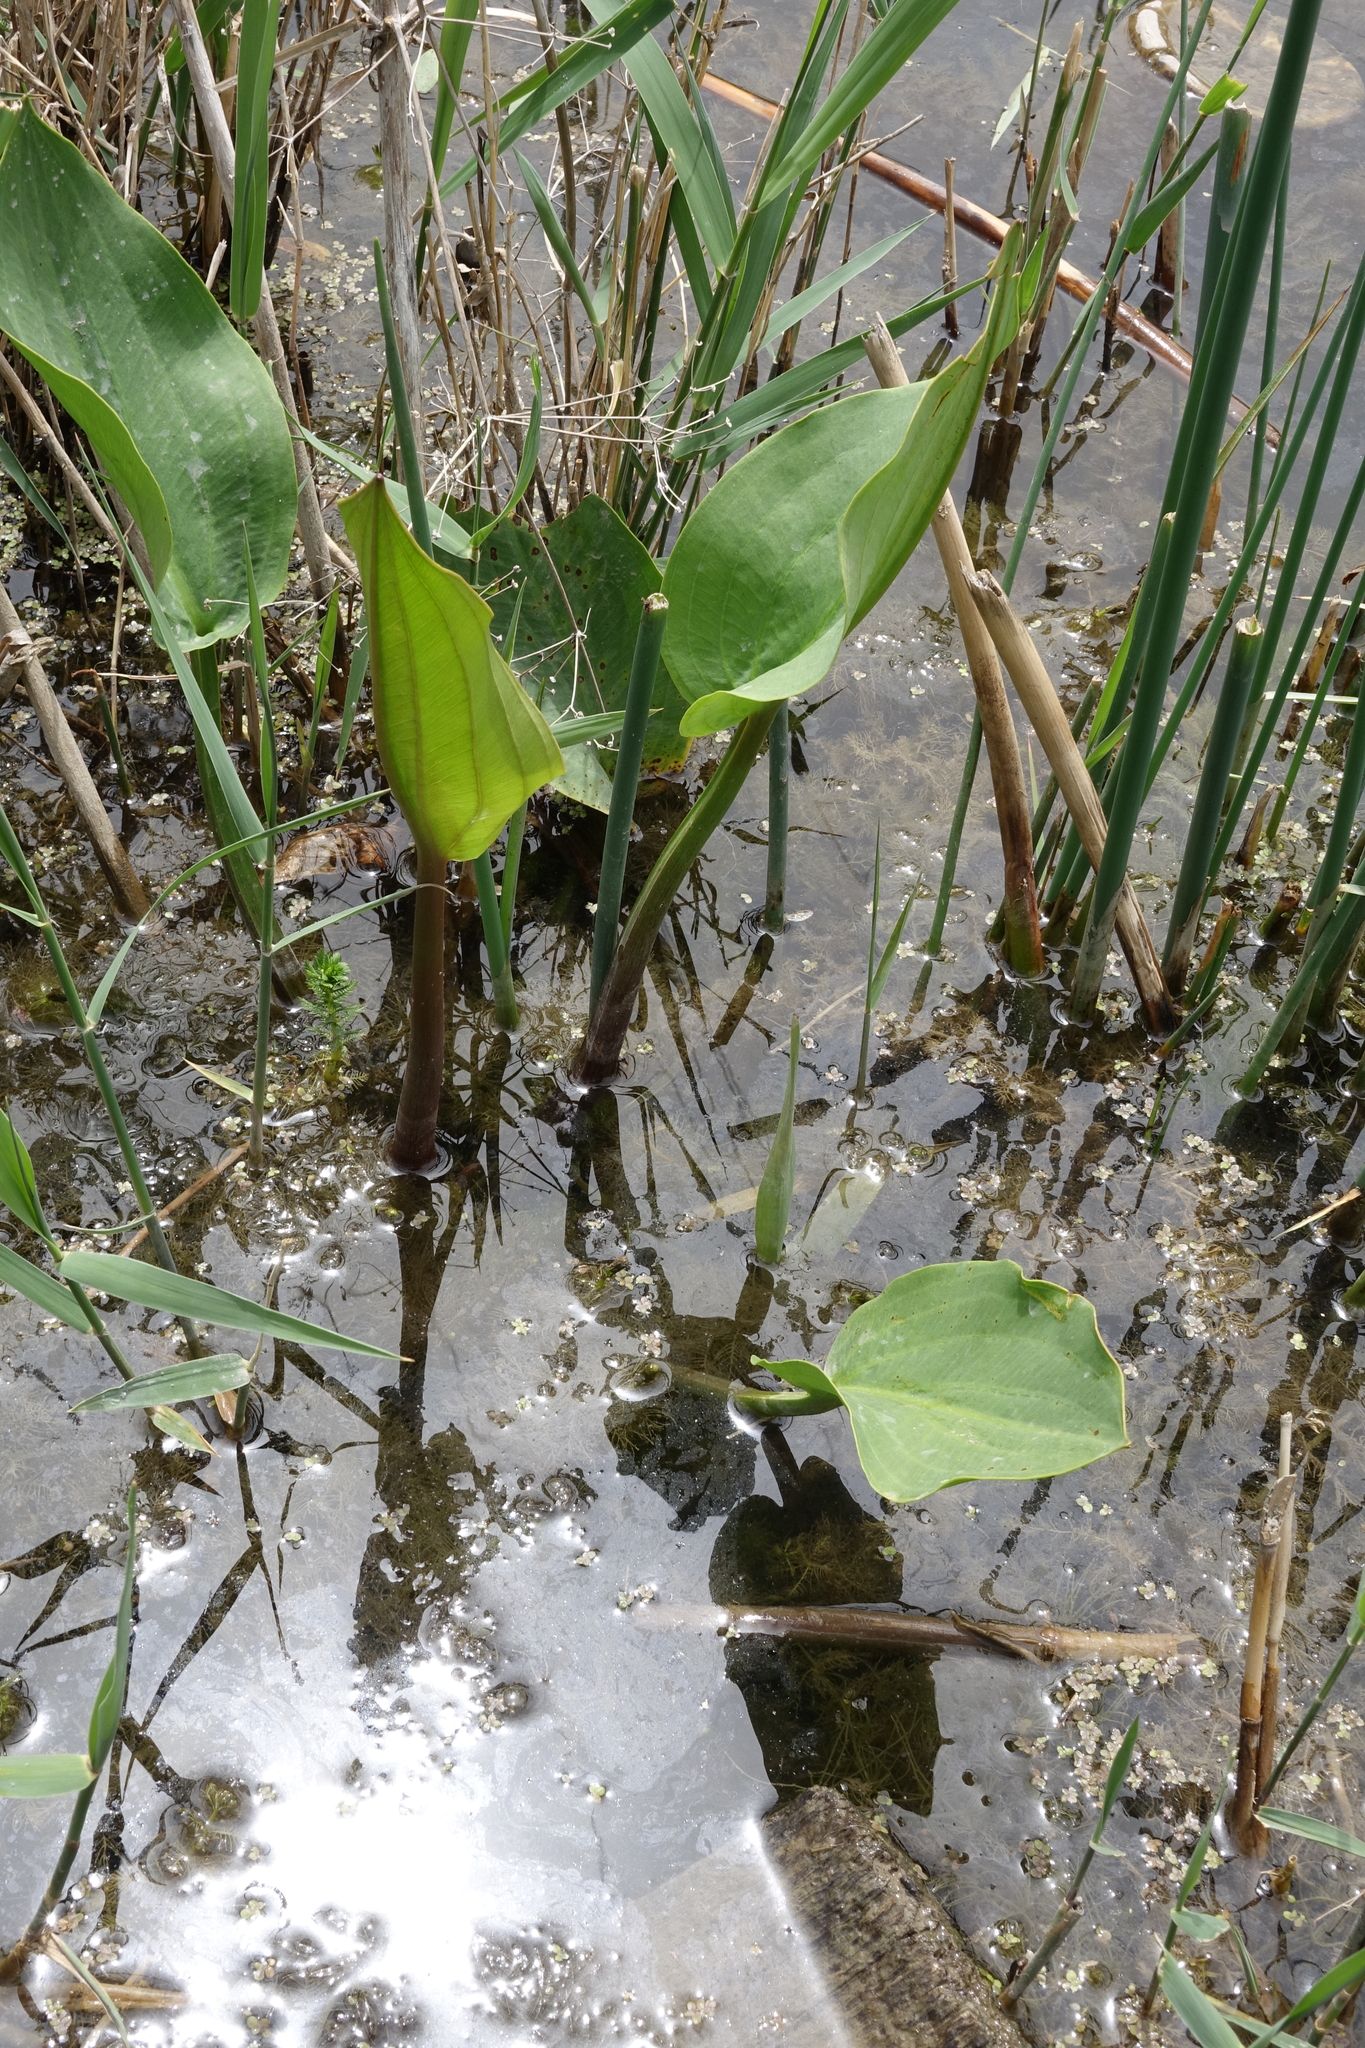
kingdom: Plantae
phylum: Tracheophyta
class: Liliopsida
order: Alismatales
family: Alismataceae
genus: Alisma
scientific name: Alisma plantago-aquatica
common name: Water-plantain
